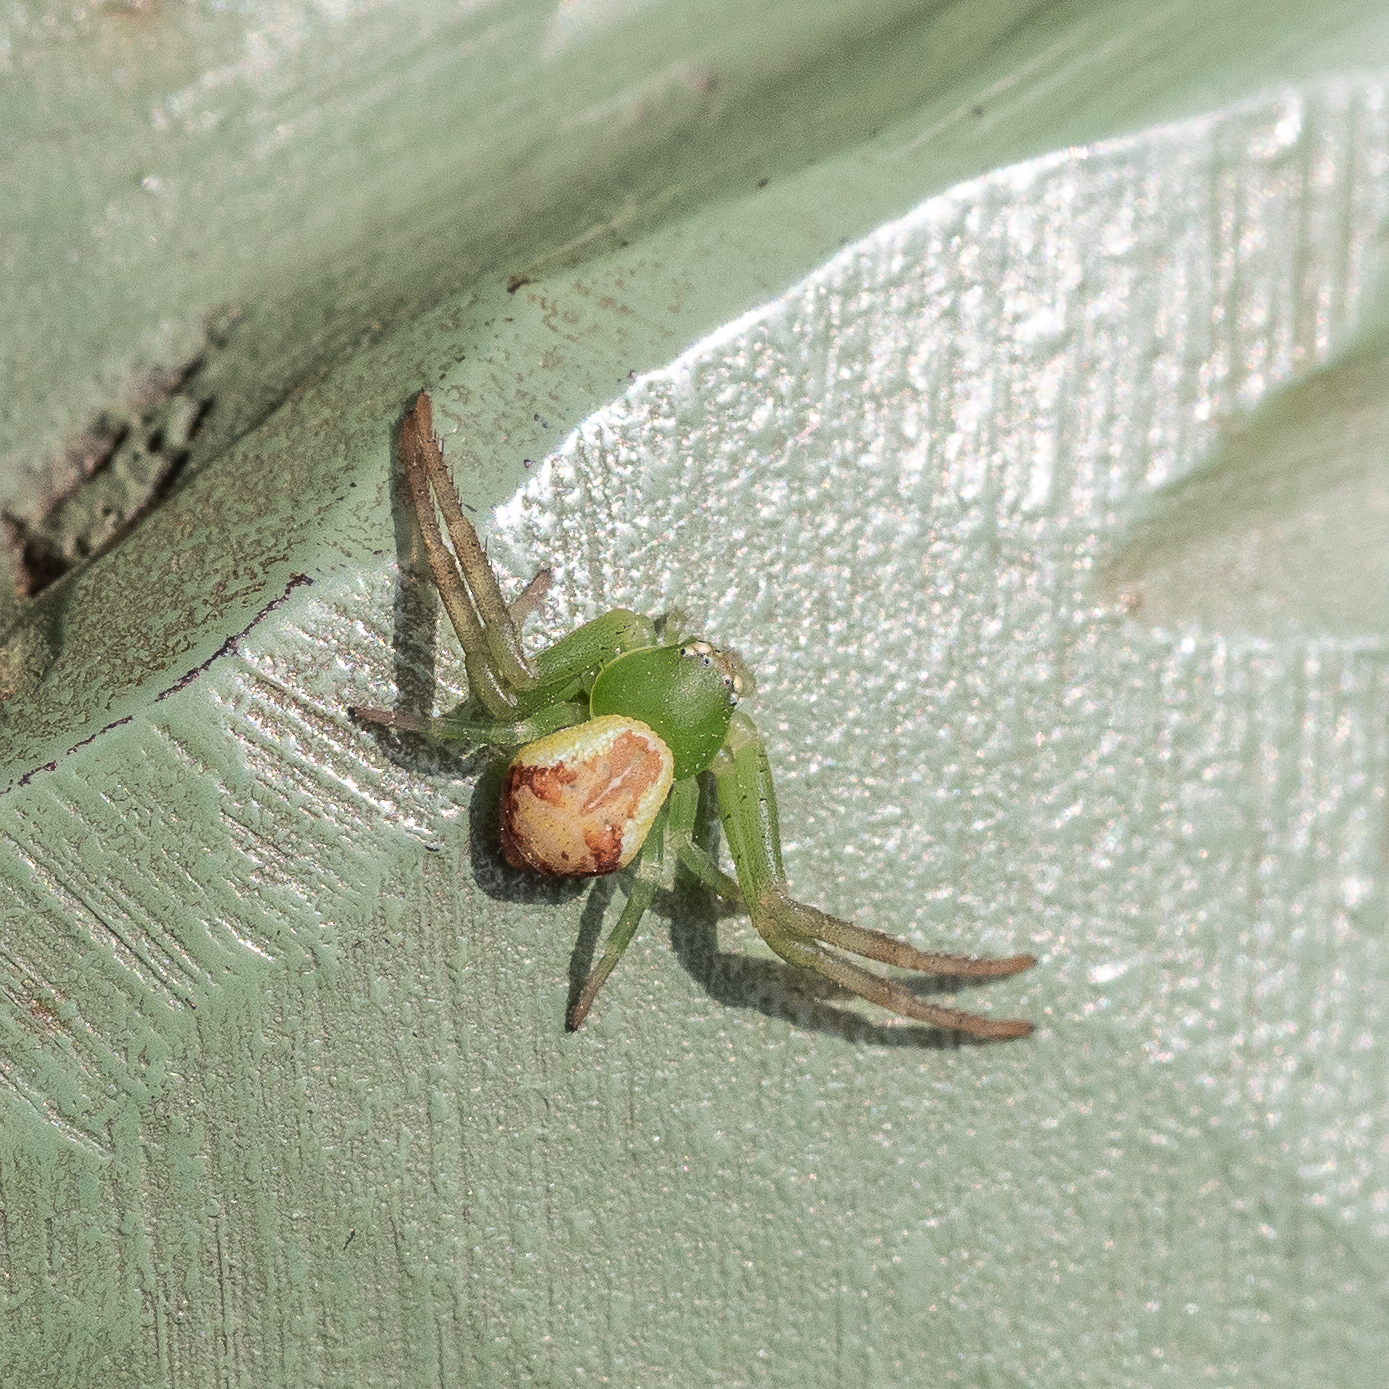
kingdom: Animalia
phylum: Arthropoda
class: Arachnida
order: Araneae
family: Thomisidae
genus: Ebrechtella
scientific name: Ebrechtella tricuspidata
